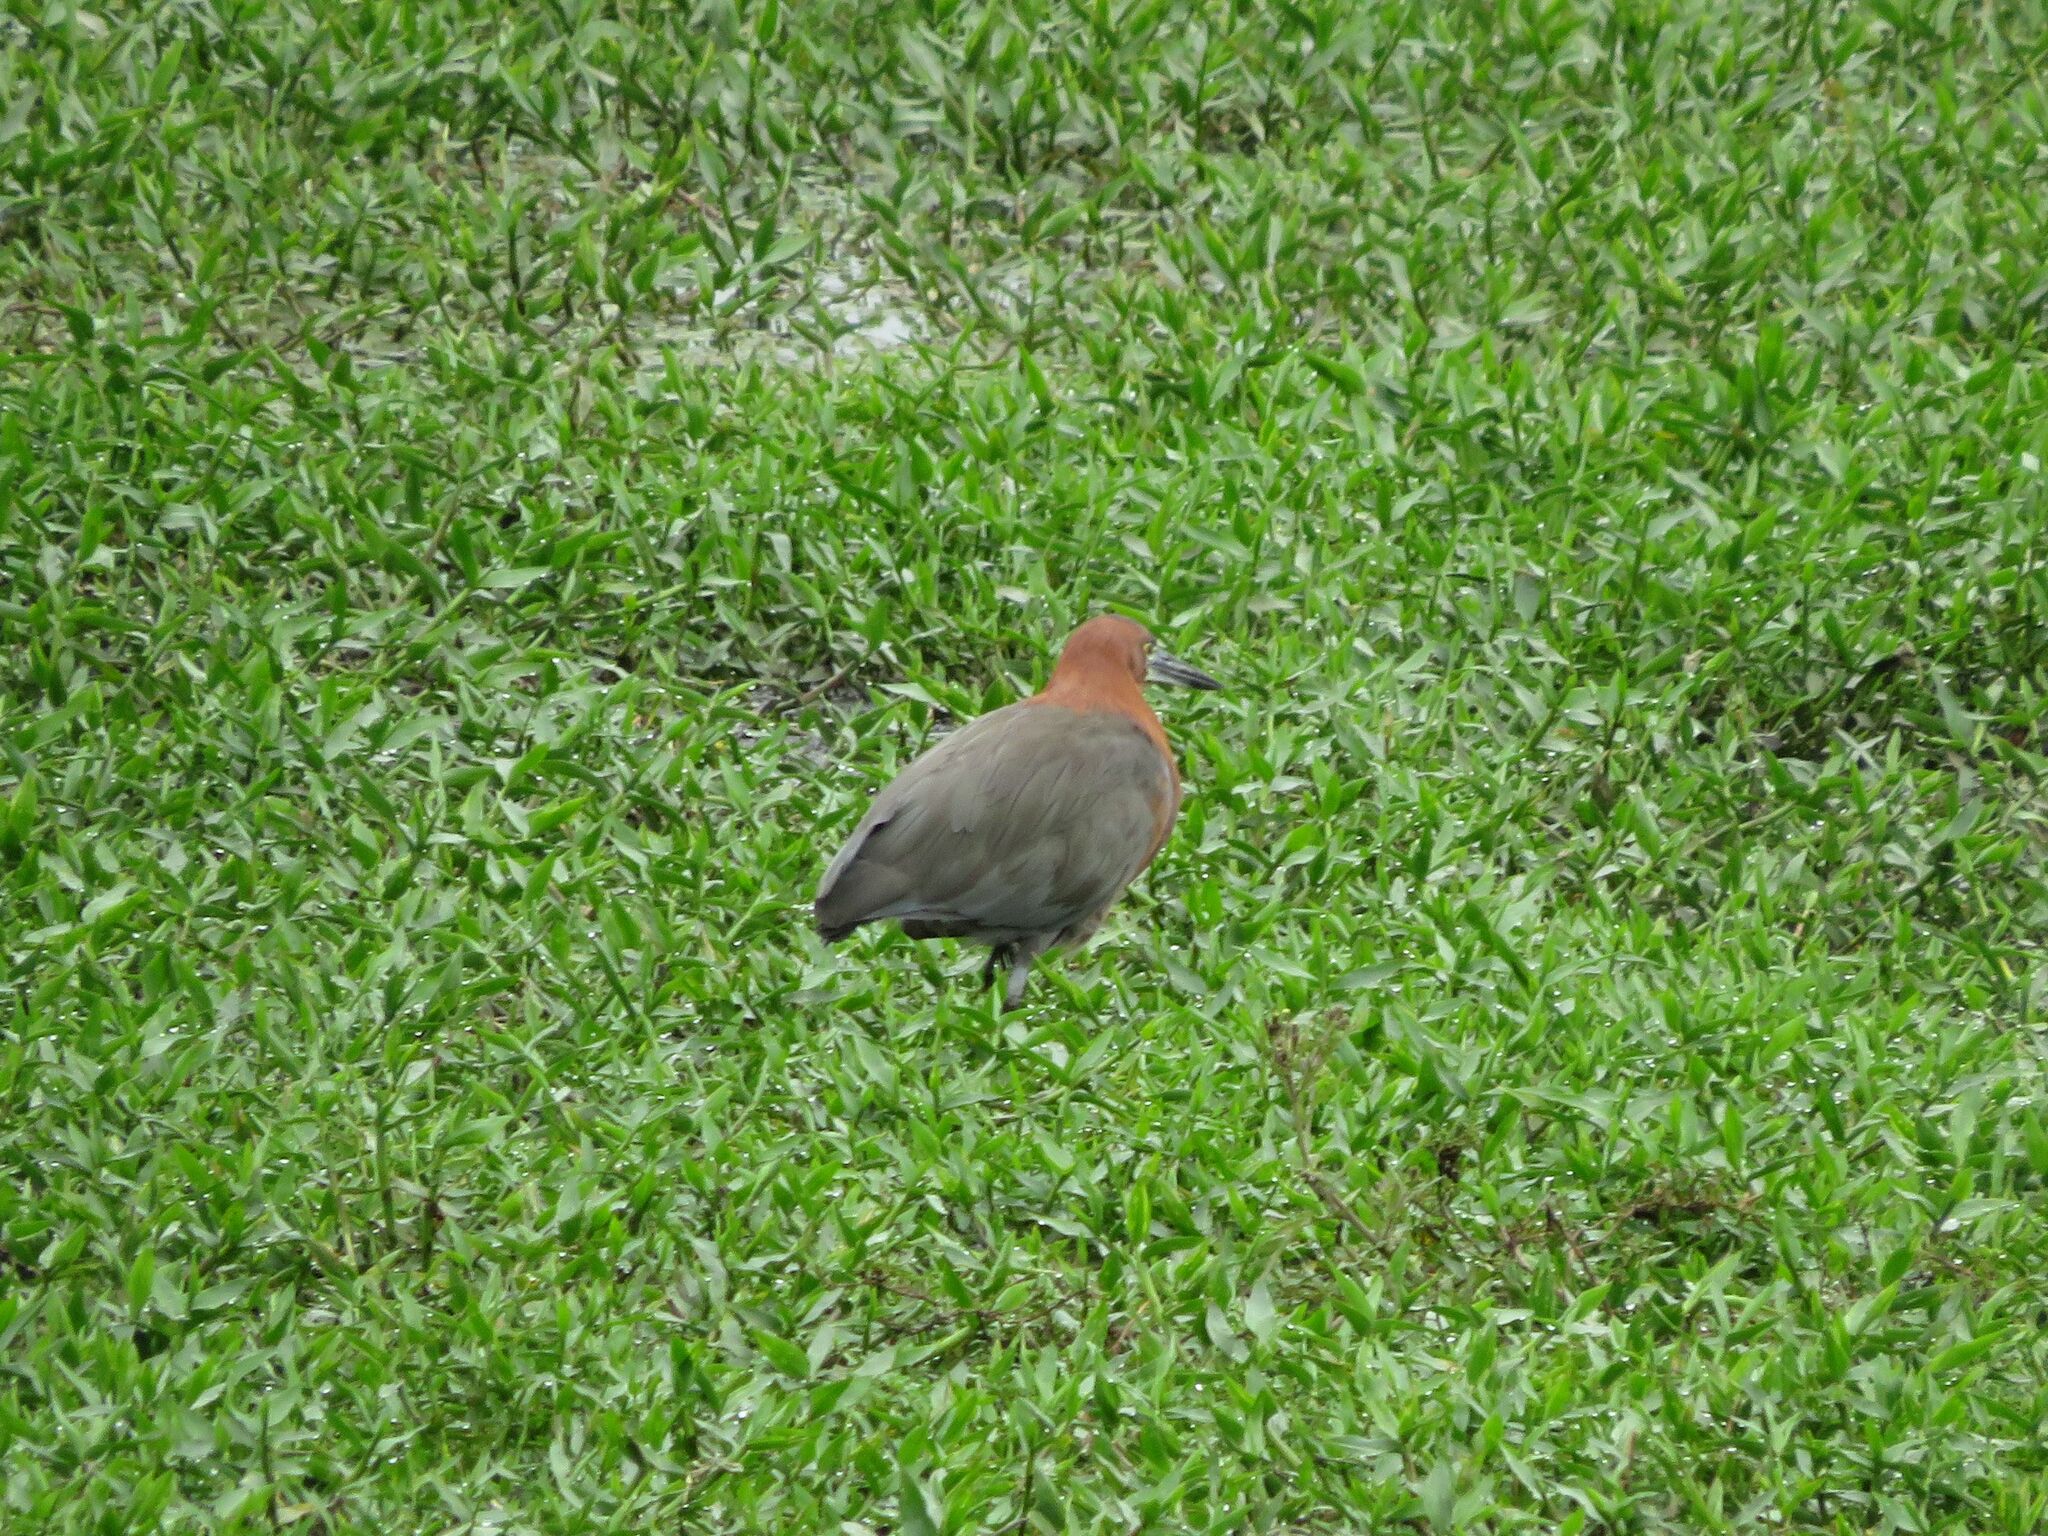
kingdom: Animalia
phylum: Chordata
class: Aves
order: Pelecaniformes
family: Ardeidae
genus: Tigrisoma
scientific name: Tigrisoma lineatum
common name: Rufescent tiger-heron
